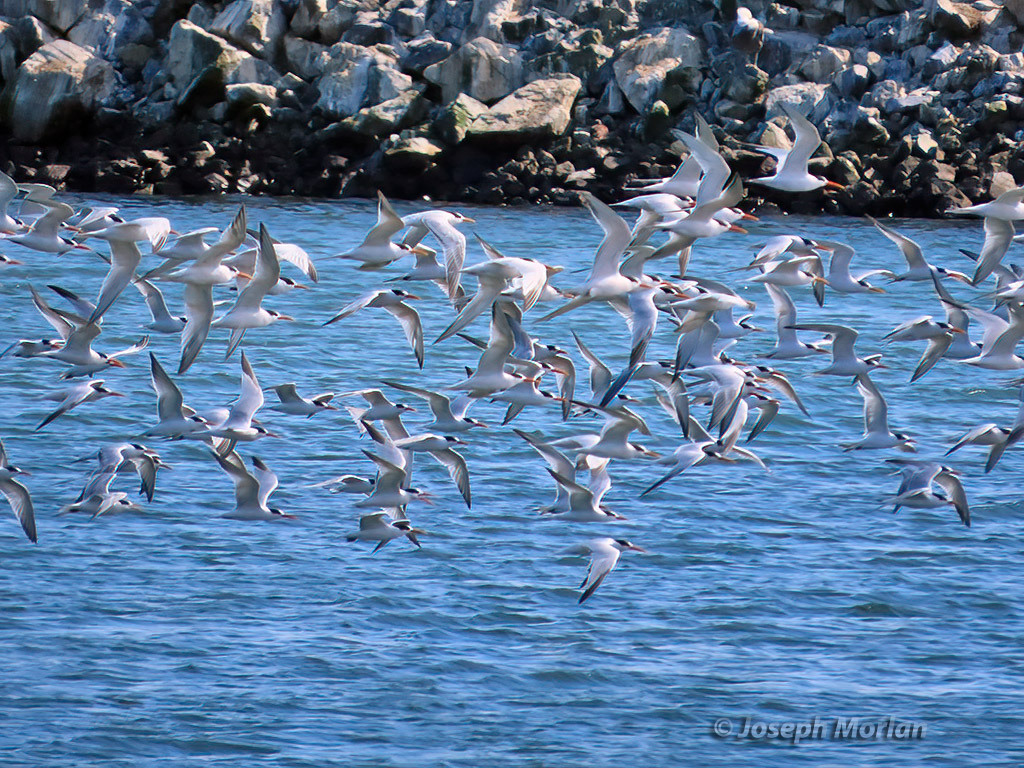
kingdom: Animalia
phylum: Chordata
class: Aves
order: Charadriiformes
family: Laridae
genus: Thalasseus
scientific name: Thalasseus elegans
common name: Elegant tern
